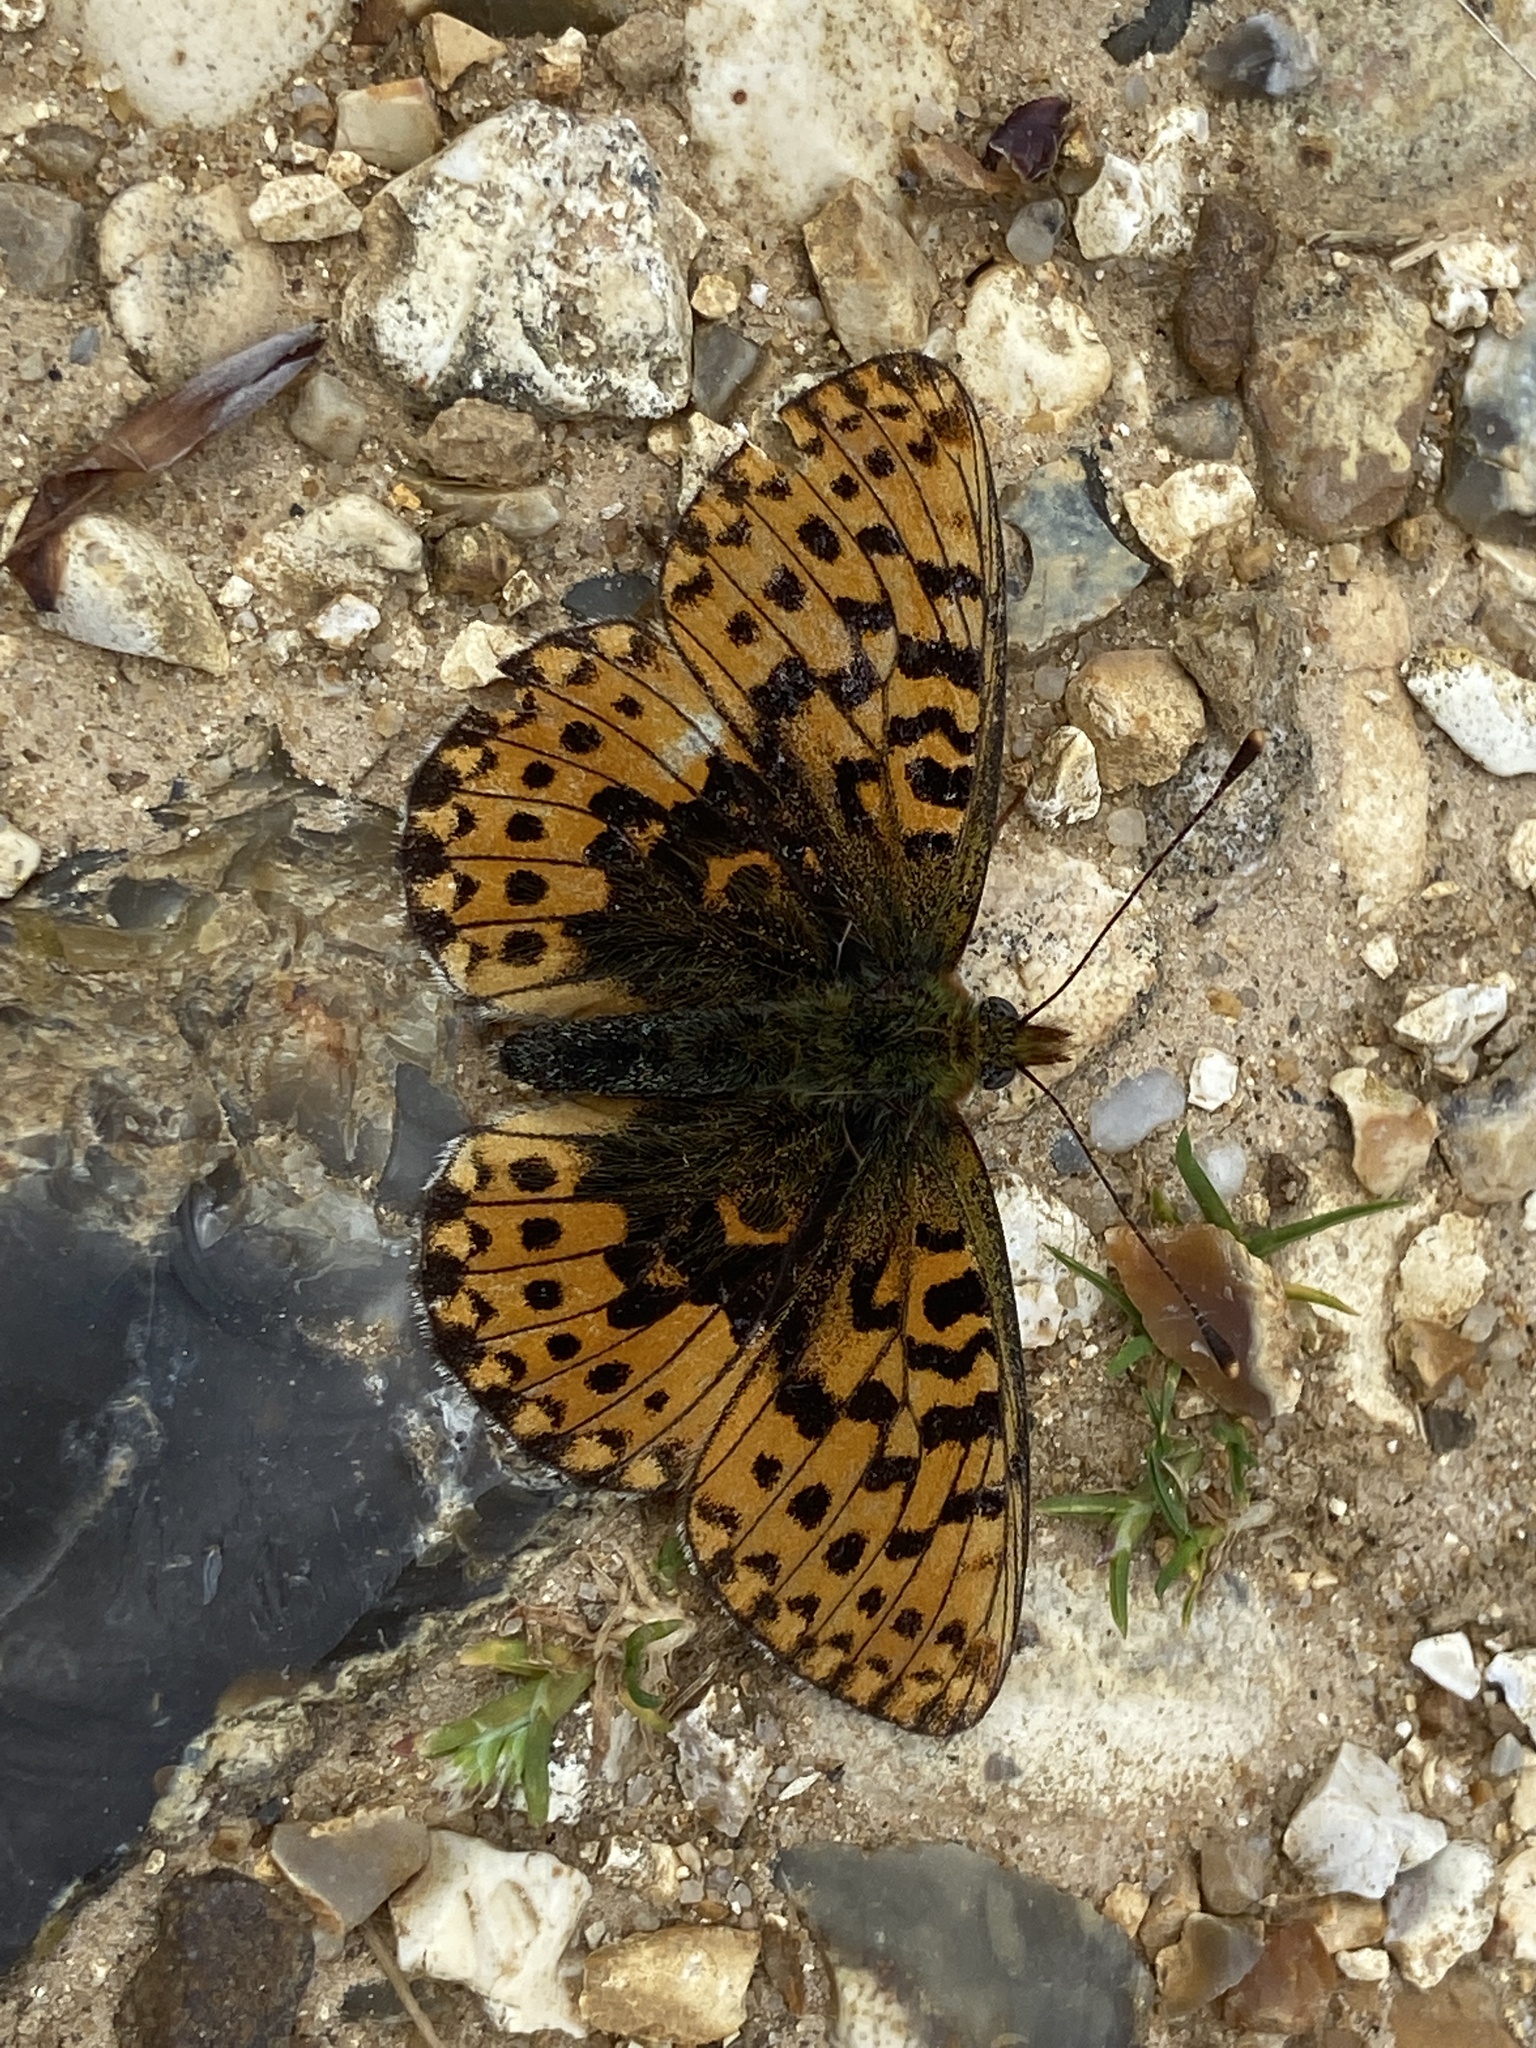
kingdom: Animalia
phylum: Arthropoda
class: Insecta
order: Lepidoptera
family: Nymphalidae
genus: Clossiana
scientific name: Clossiana euphrosyne
